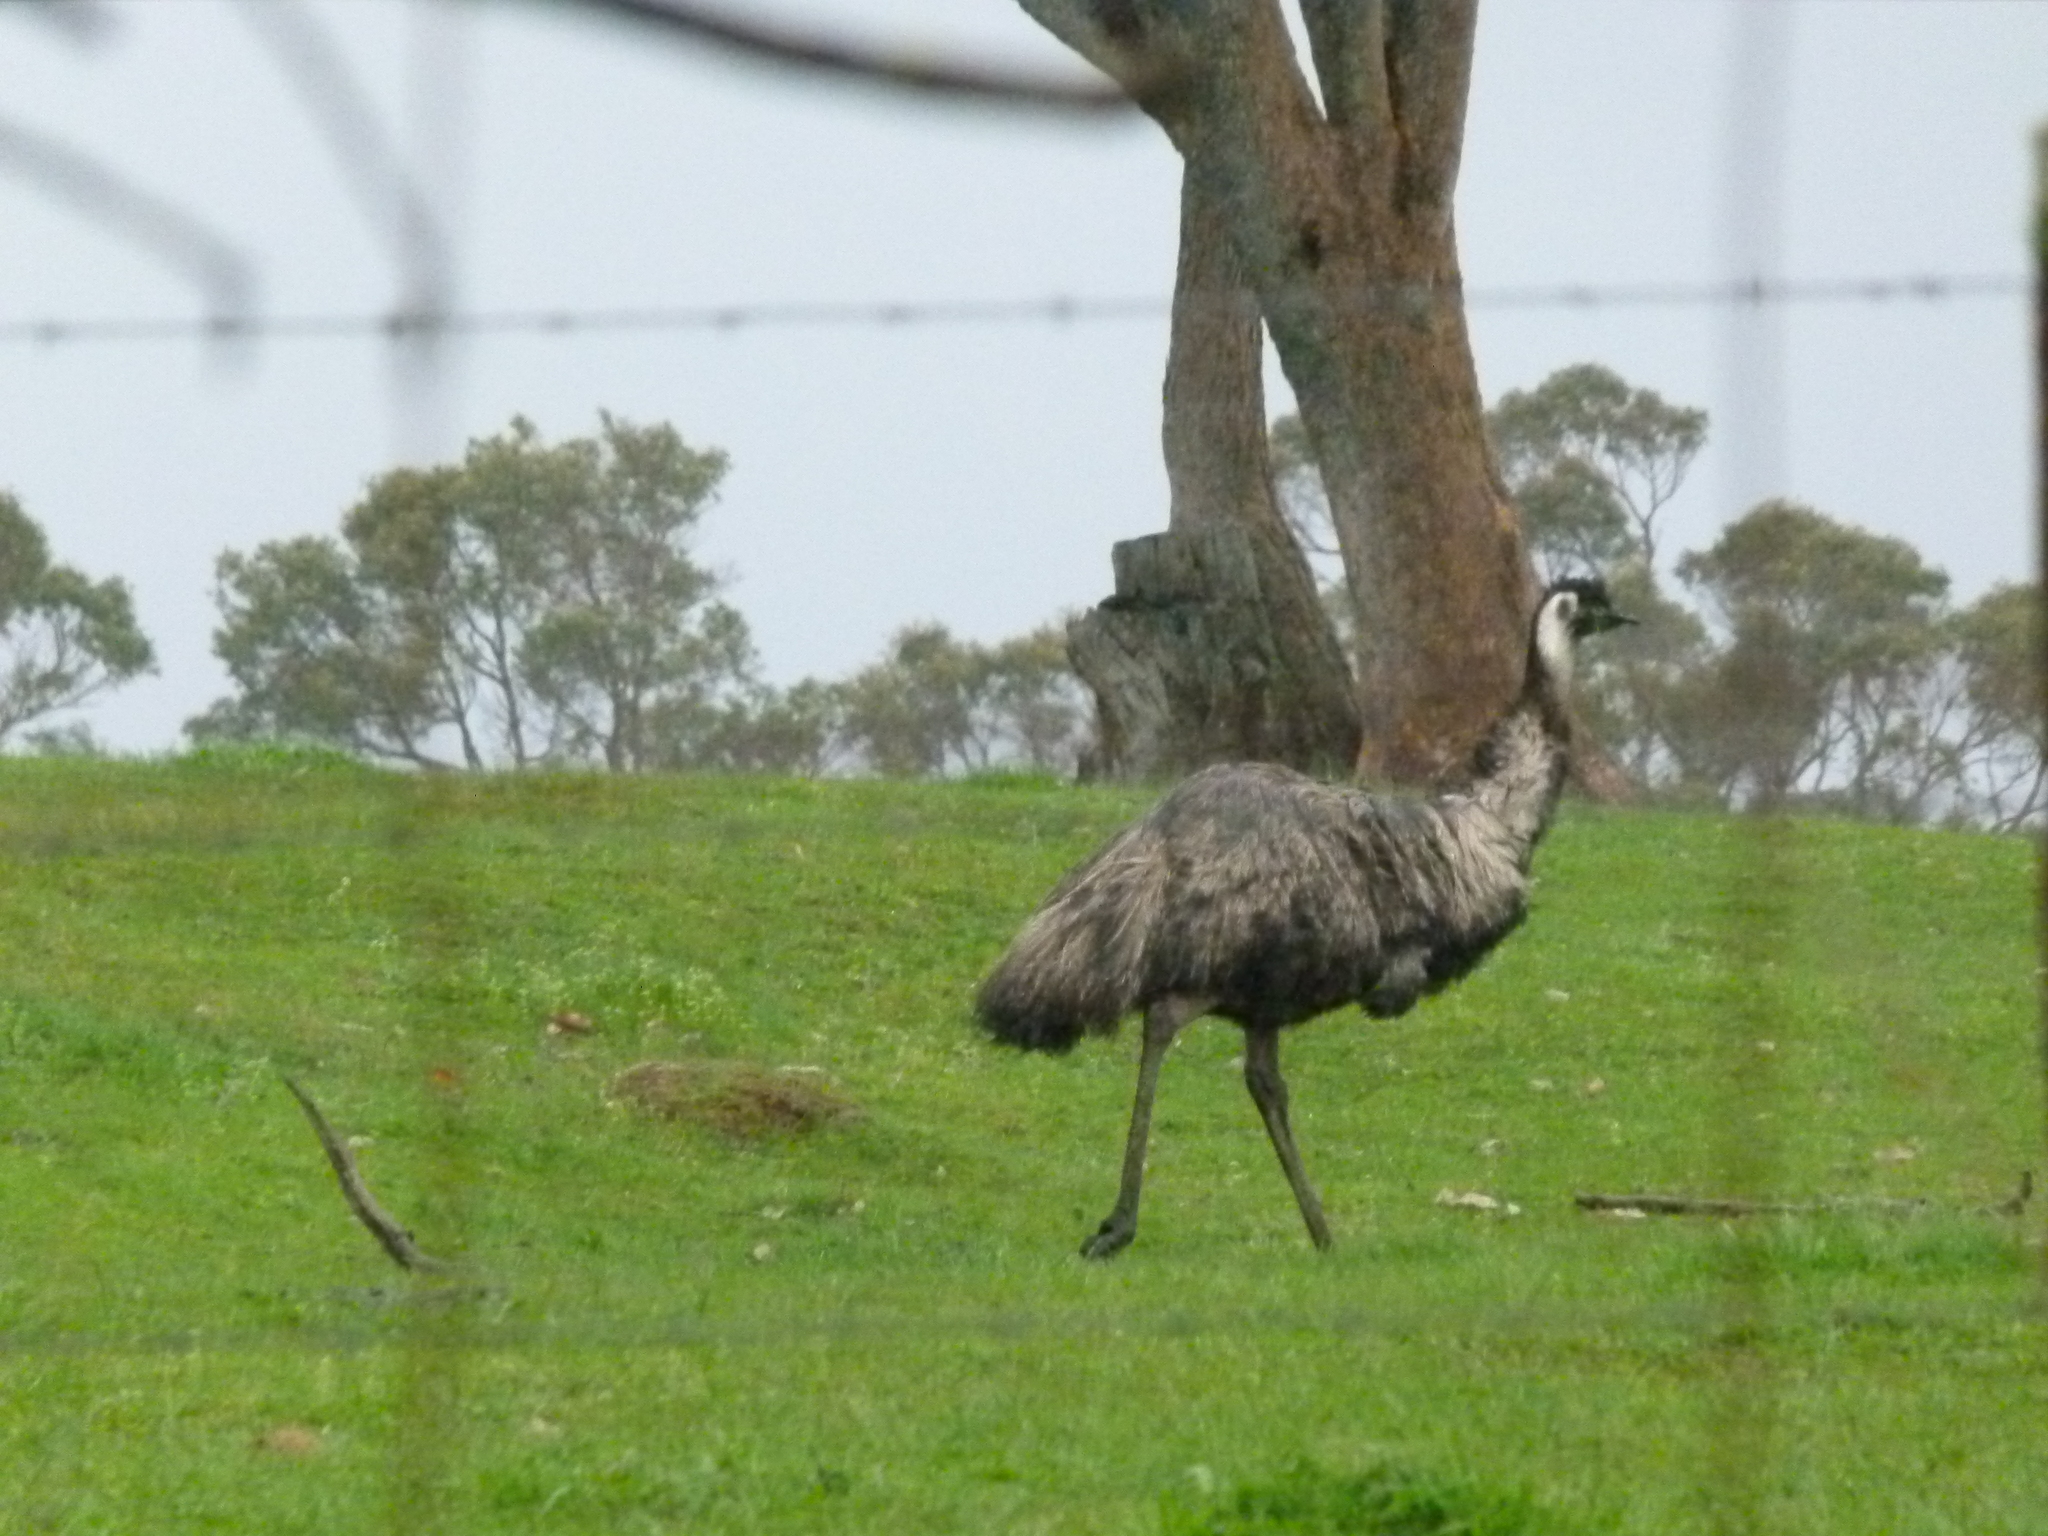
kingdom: Animalia
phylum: Chordata
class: Aves
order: Casuariiformes
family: Dromaiidae
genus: Dromaius
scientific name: Dromaius novaehollandiae
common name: Emu
